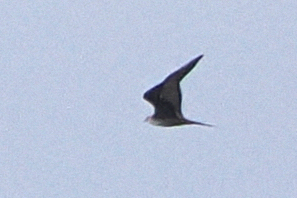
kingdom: Animalia
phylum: Chordata
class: Aves
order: Charadriiformes
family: Stercorariidae
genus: Stercorarius
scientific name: Stercorarius longicaudus
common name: Long-tailed jaeger
